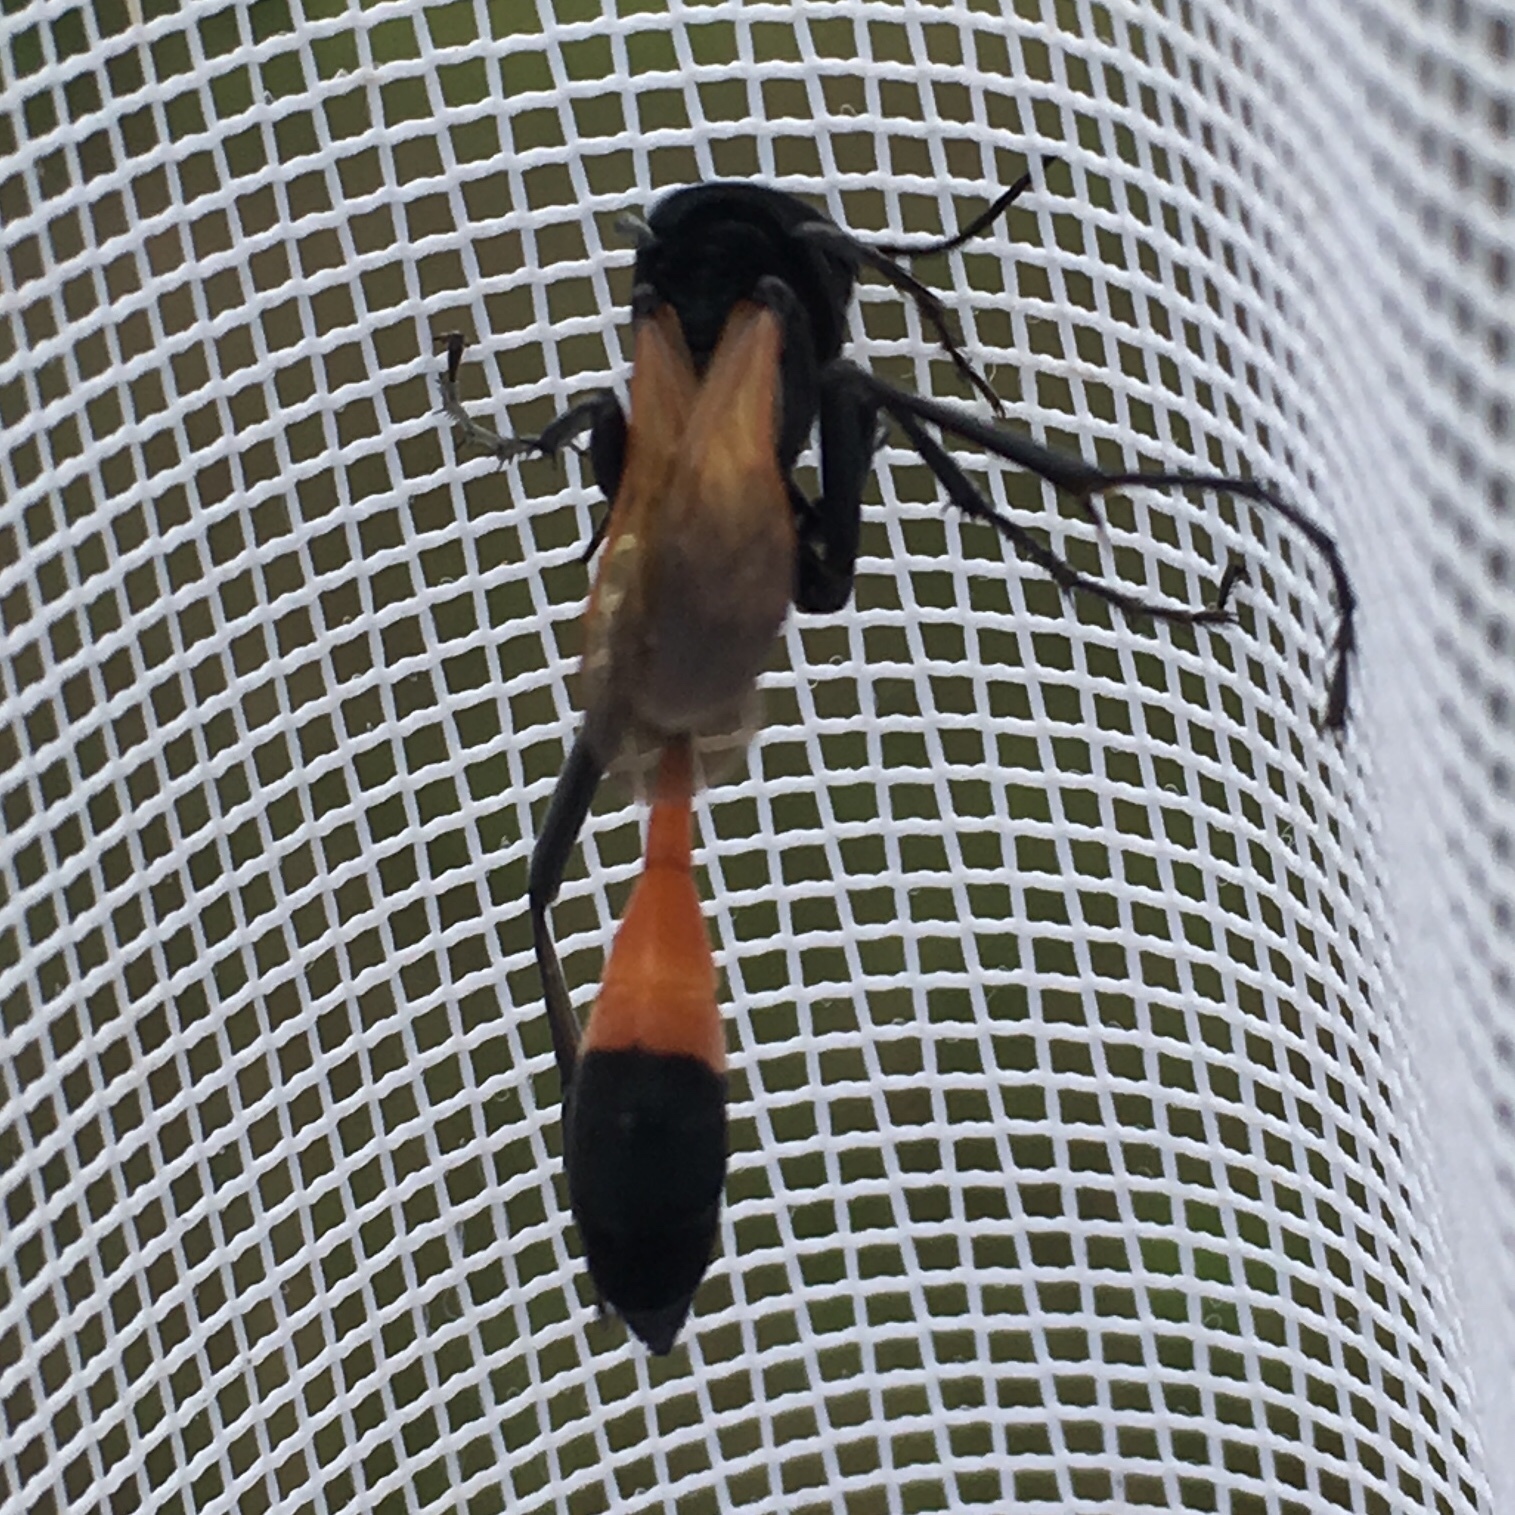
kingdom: Animalia
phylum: Arthropoda
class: Insecta
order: Hymenoptera
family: Sphecidae
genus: Ammophila
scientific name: Ammophila pictipennis
